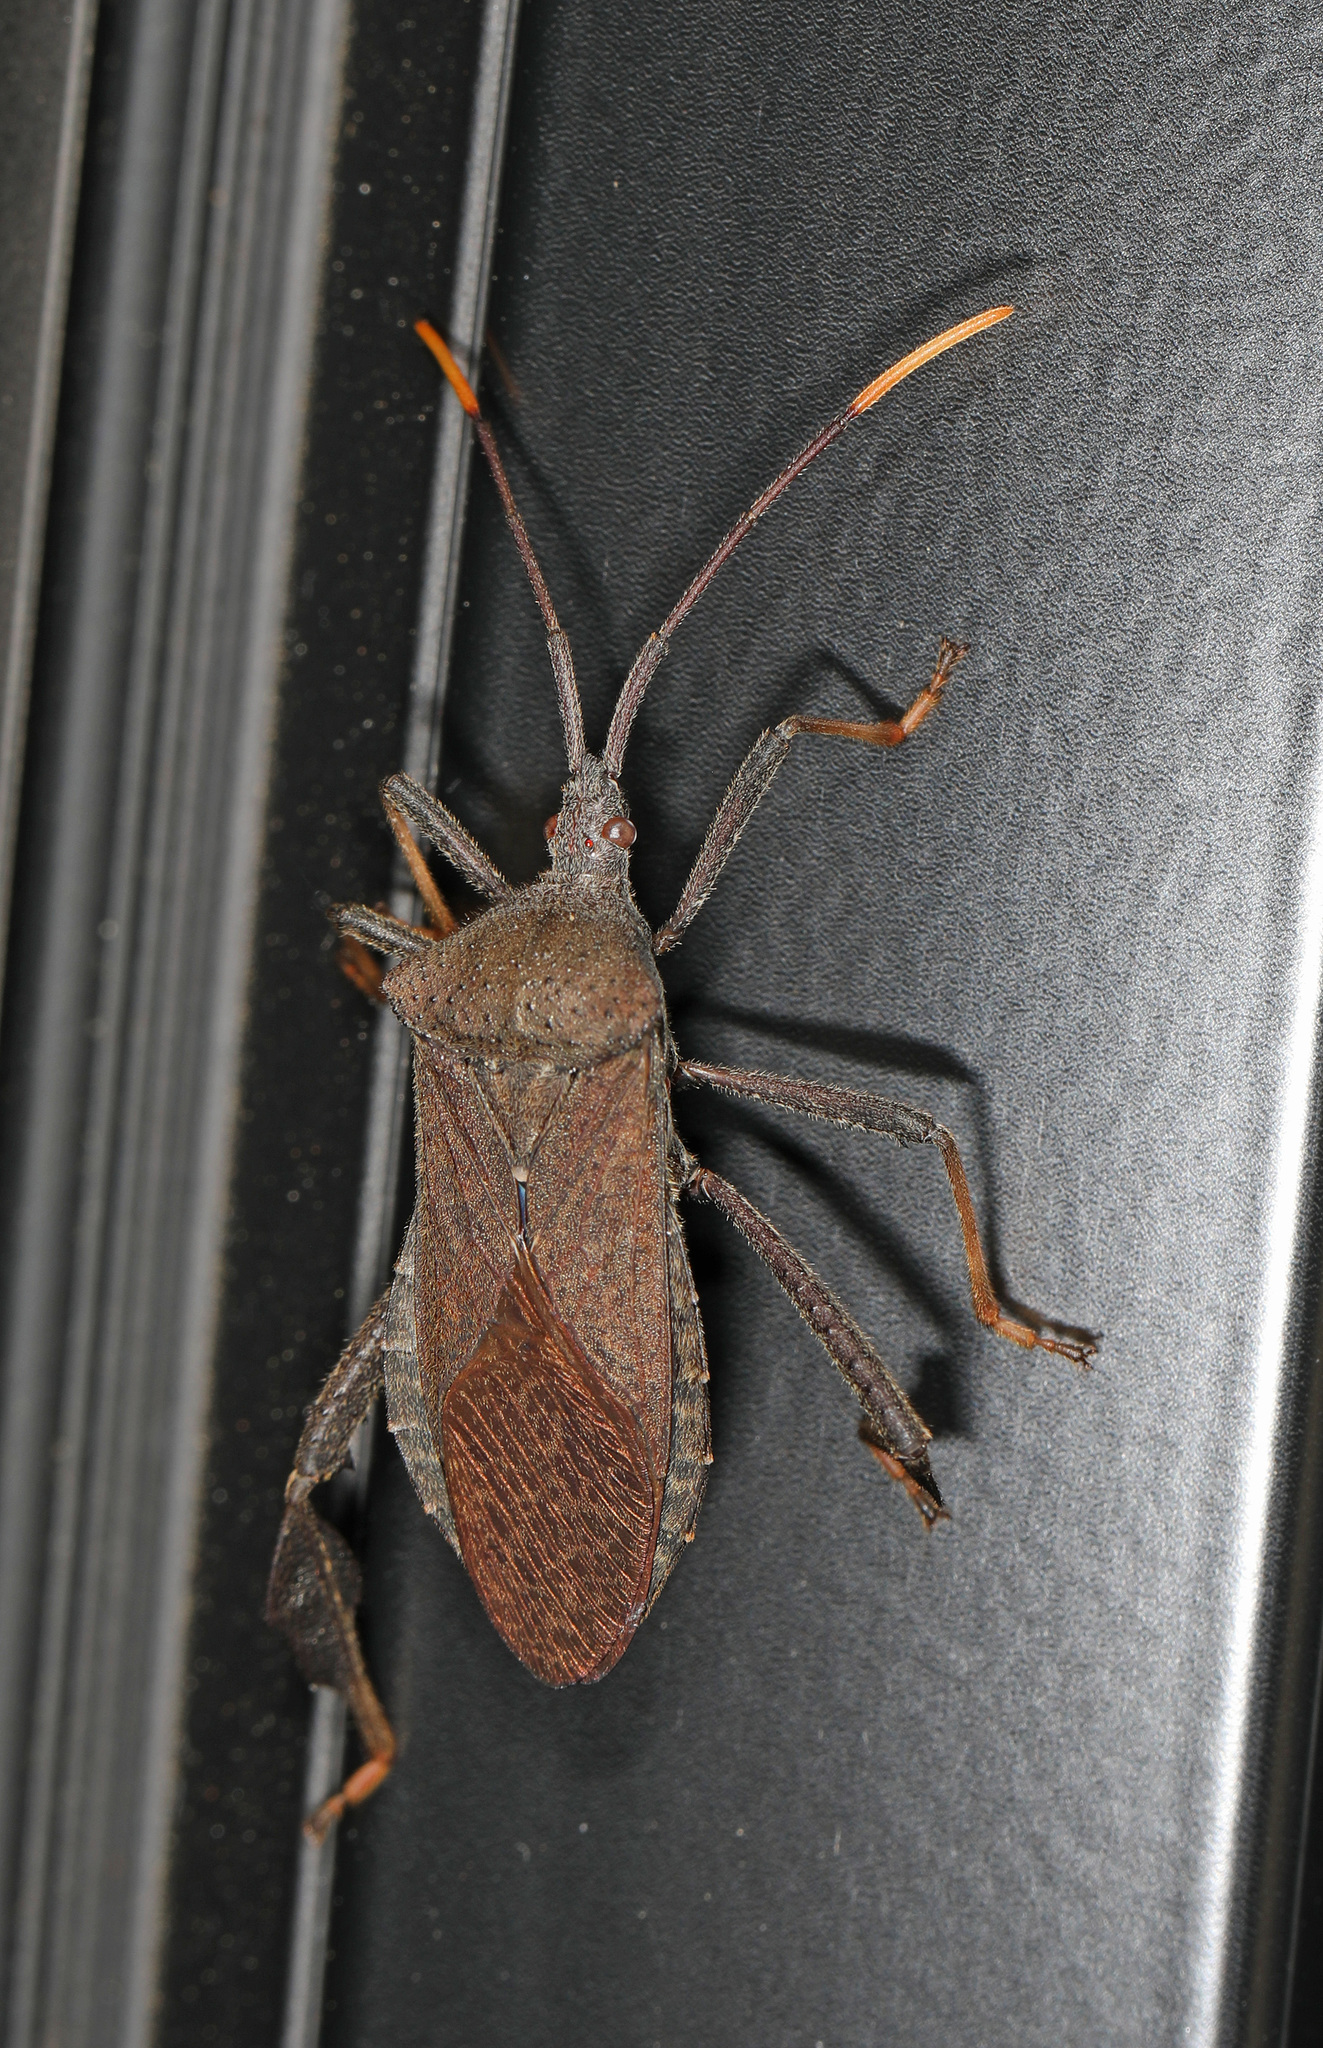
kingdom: Animalia
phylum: Arthropoda
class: Insecta
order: Hemiptera
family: Coreidae
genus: Acanthocephala
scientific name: Acanthocephala terminalis
